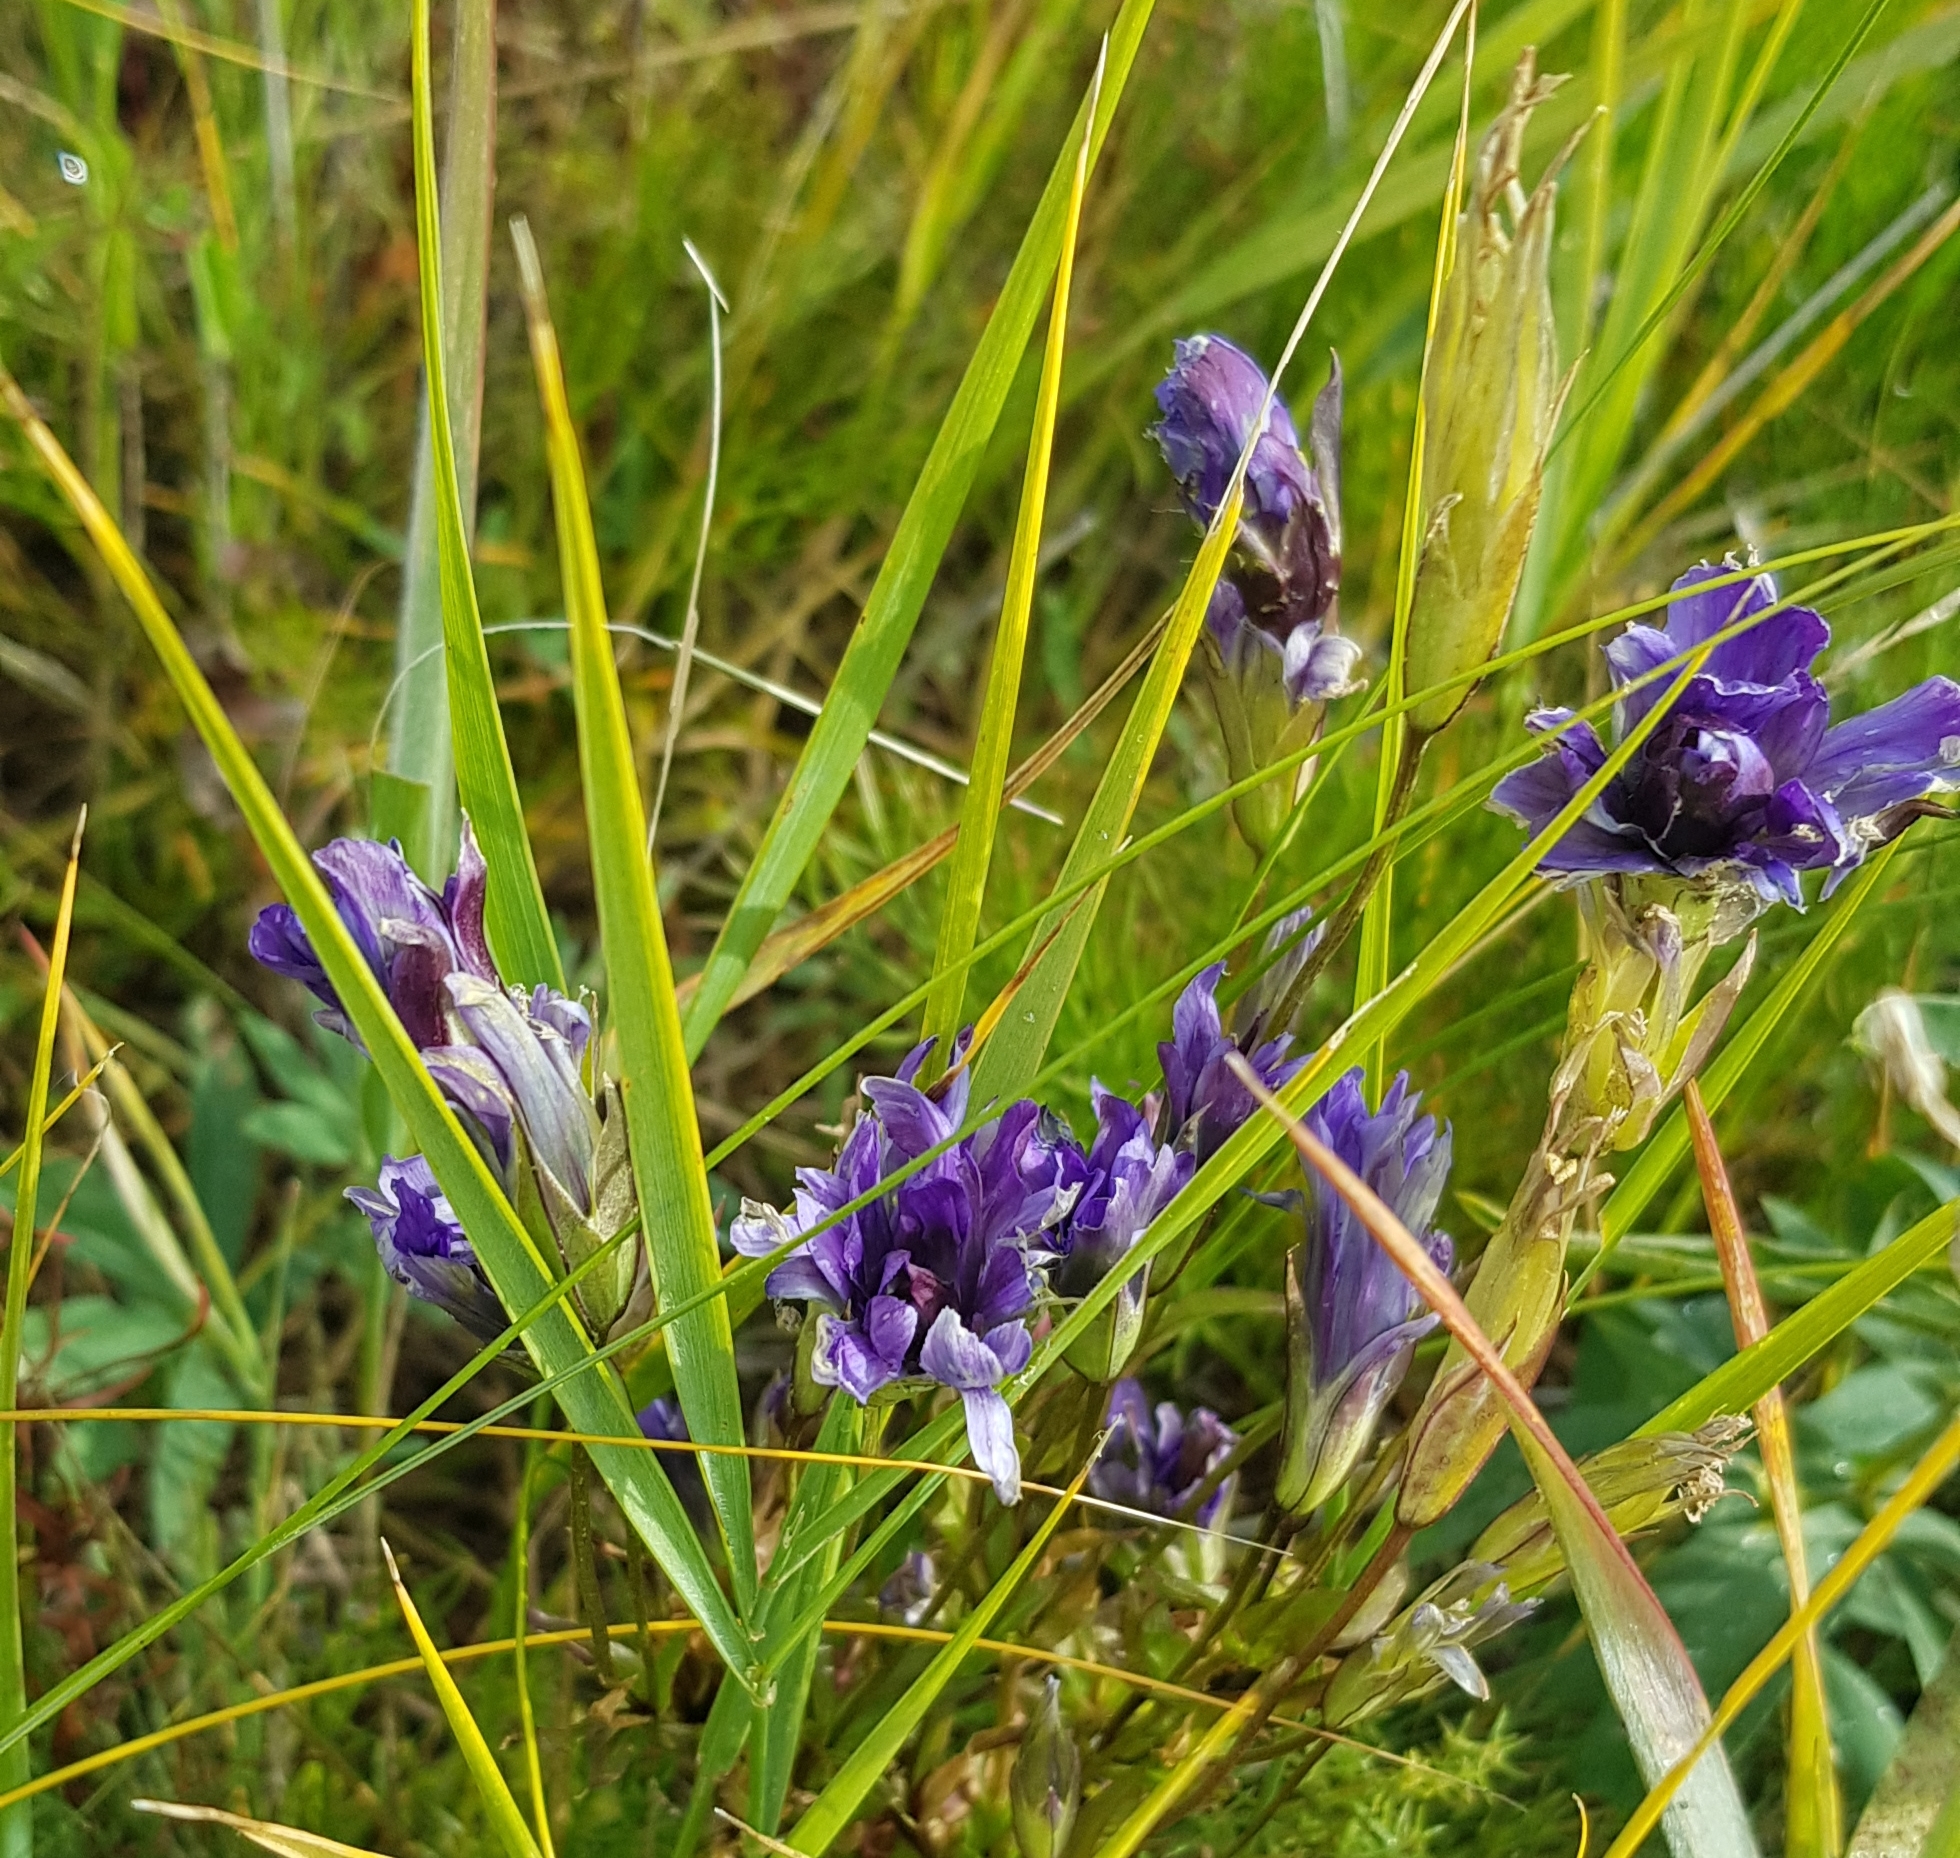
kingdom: Plantae
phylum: Tracheophyta
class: Magnoliopsida
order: Gentianales
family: Gentianaceae
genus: Gentiana
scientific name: Gentiana decumbens
